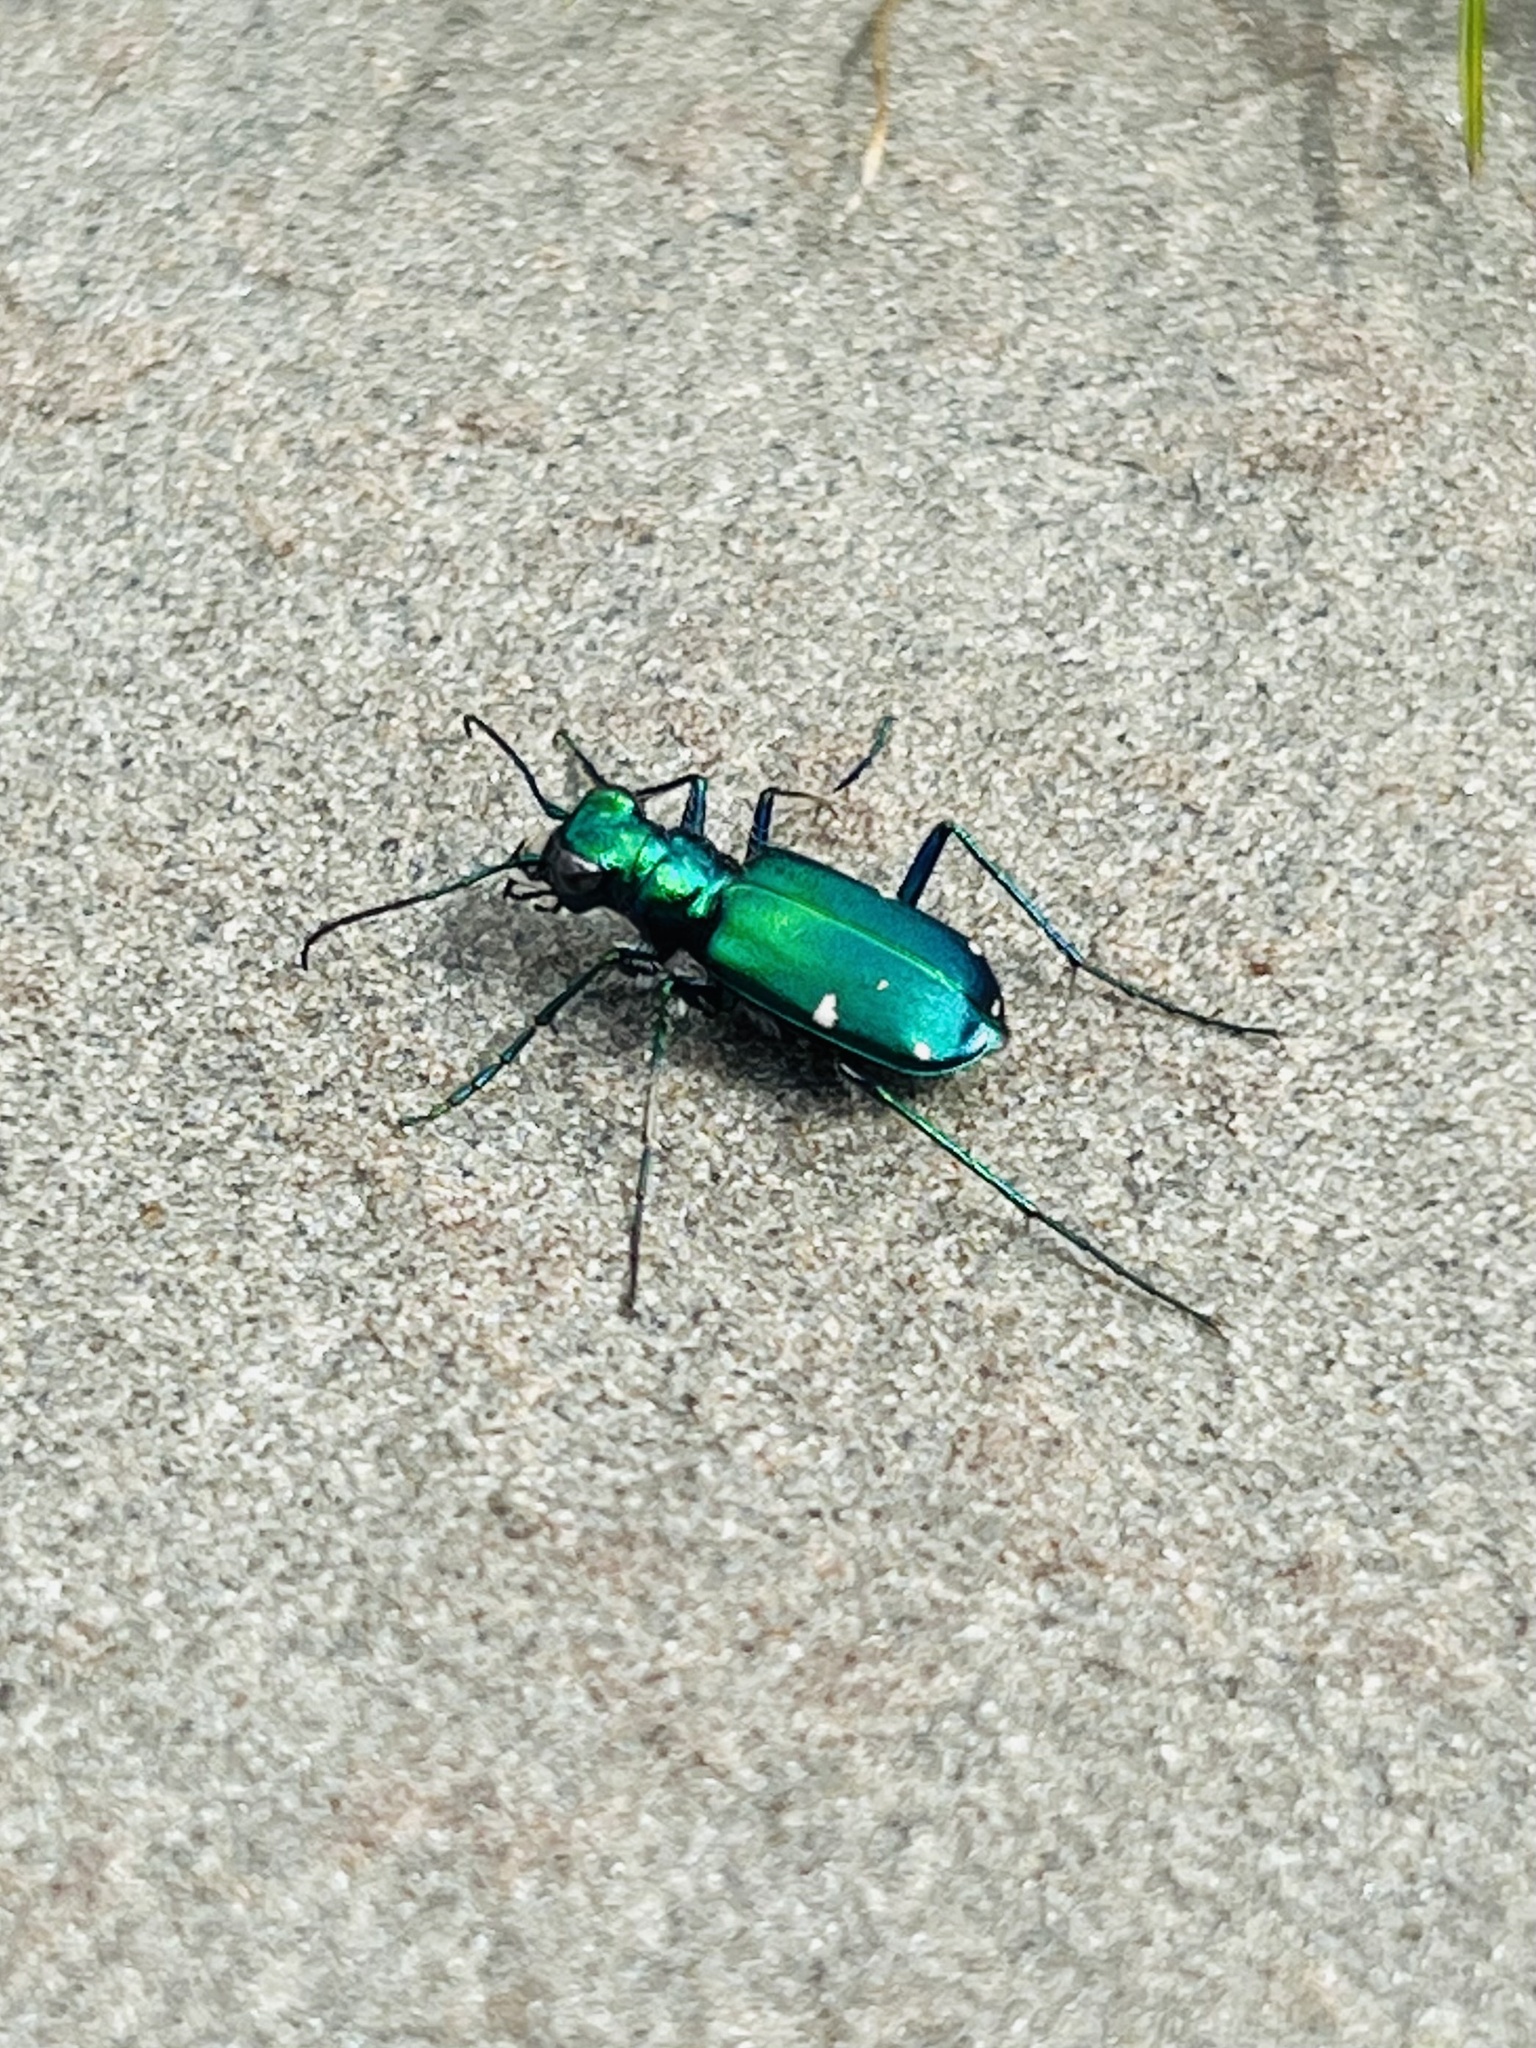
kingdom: Animalia
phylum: Arthropoda
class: Insecta
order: Coleoptera
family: Carabidae
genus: Cicindela
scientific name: Cicindela sexguttata
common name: Six-spotted tiger beetle
